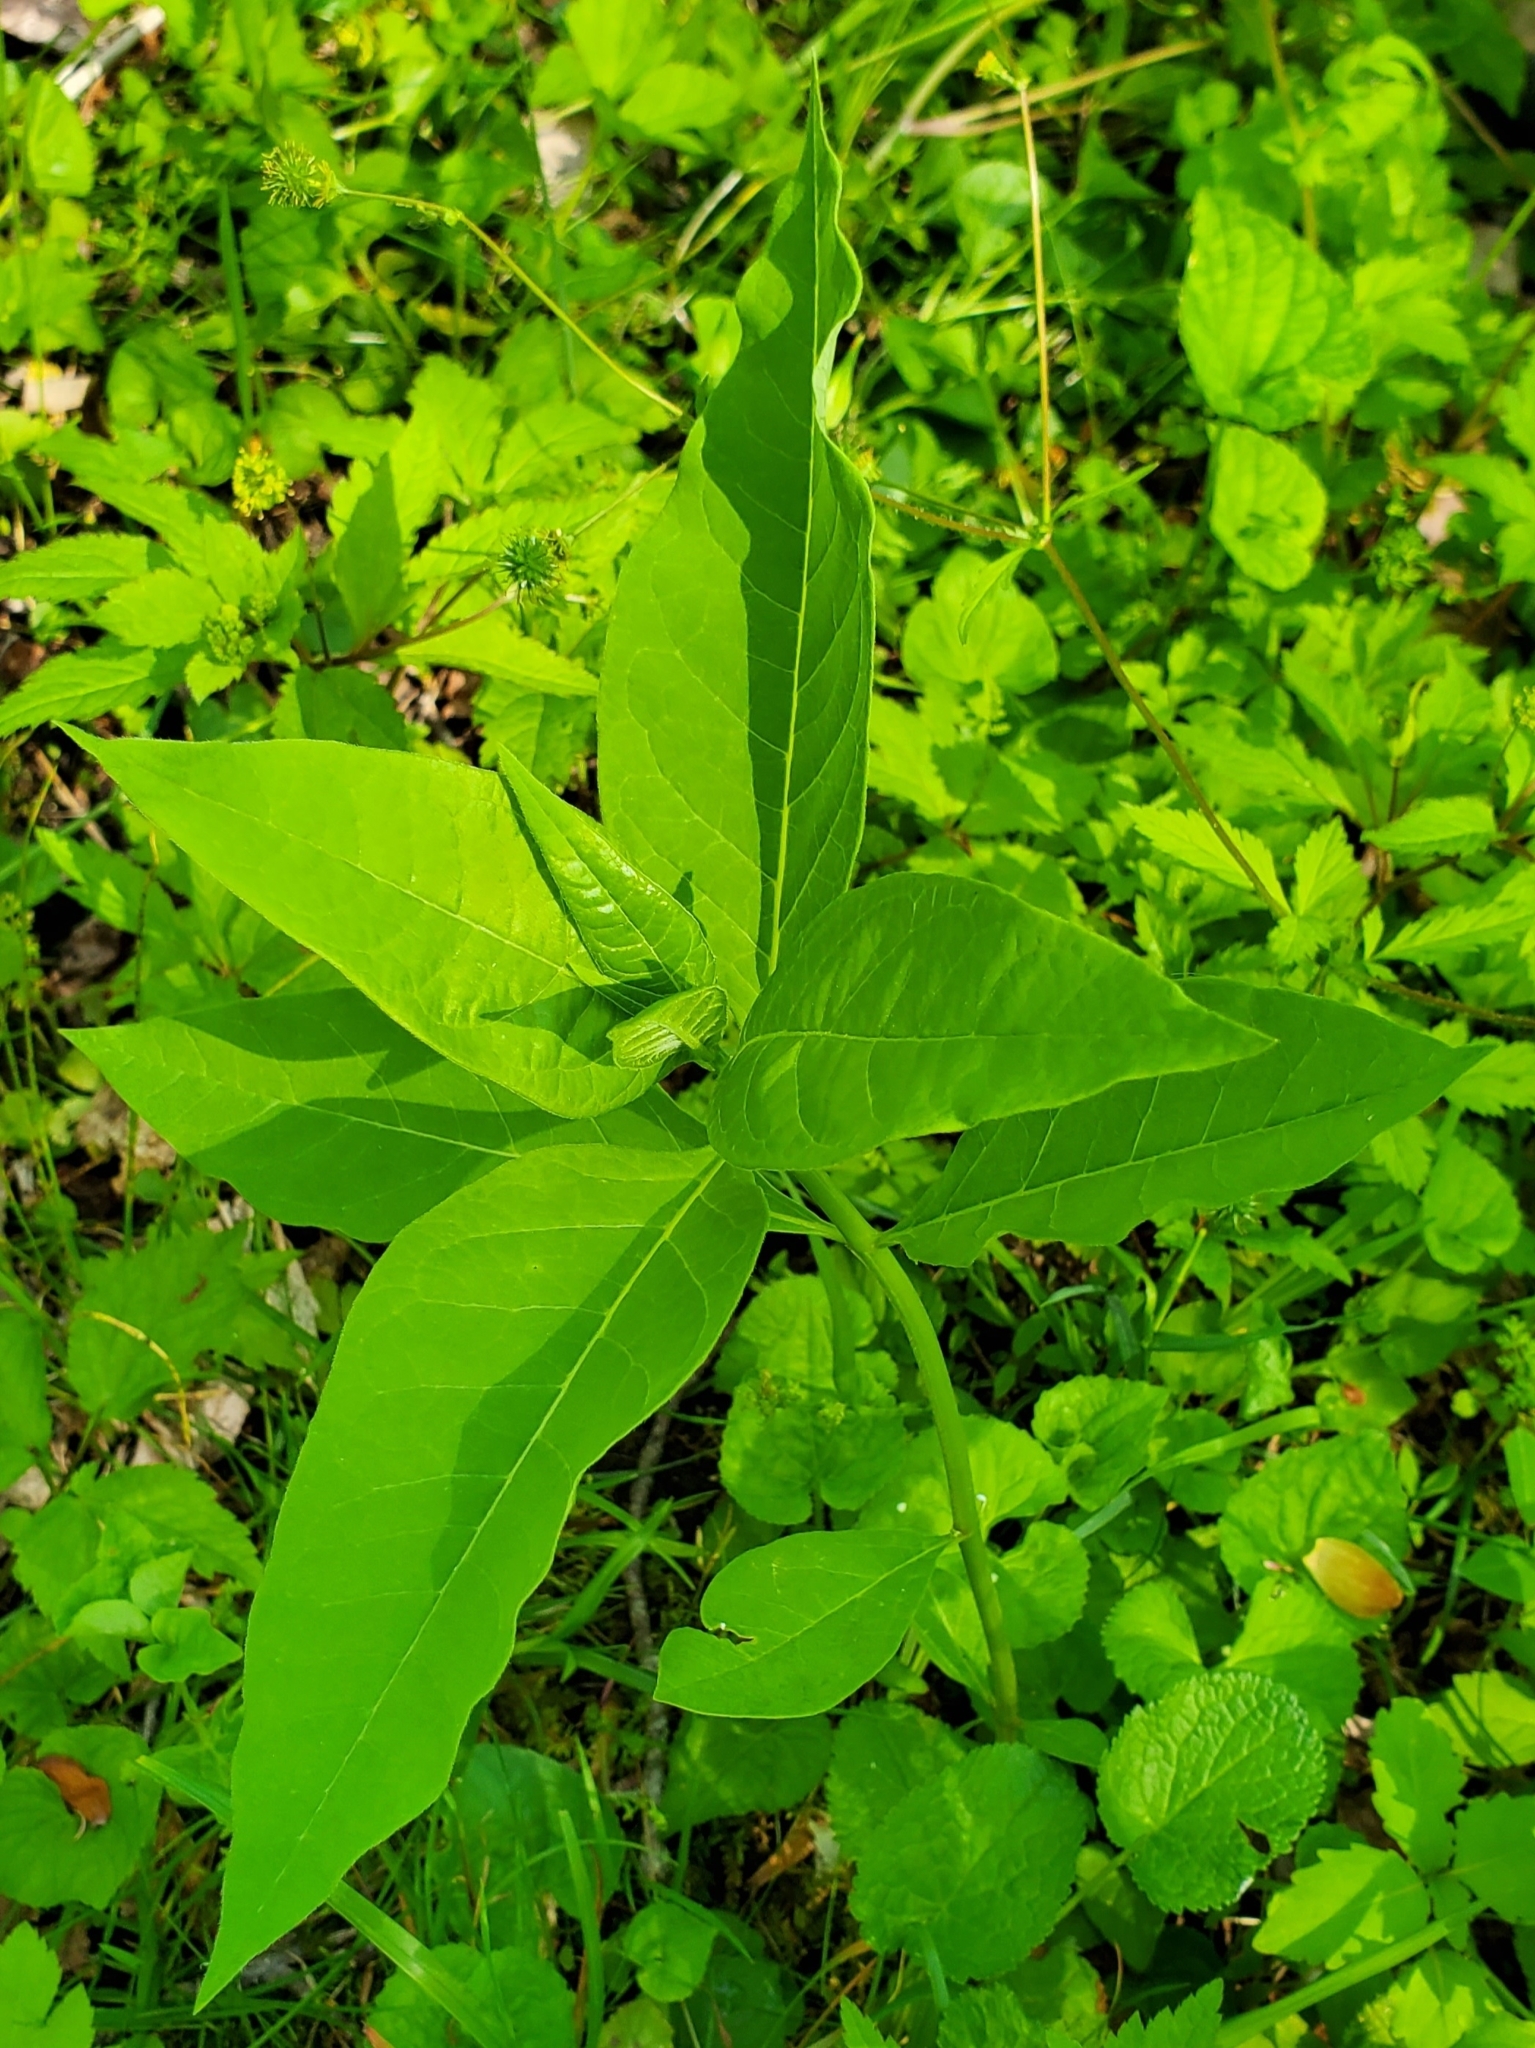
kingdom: Plantae
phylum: Tracheophyta
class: Magnoliopsida
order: Gentianales
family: Apocynaceae
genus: Asclepias
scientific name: Asclepias exaltata
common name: Poke milkweed
